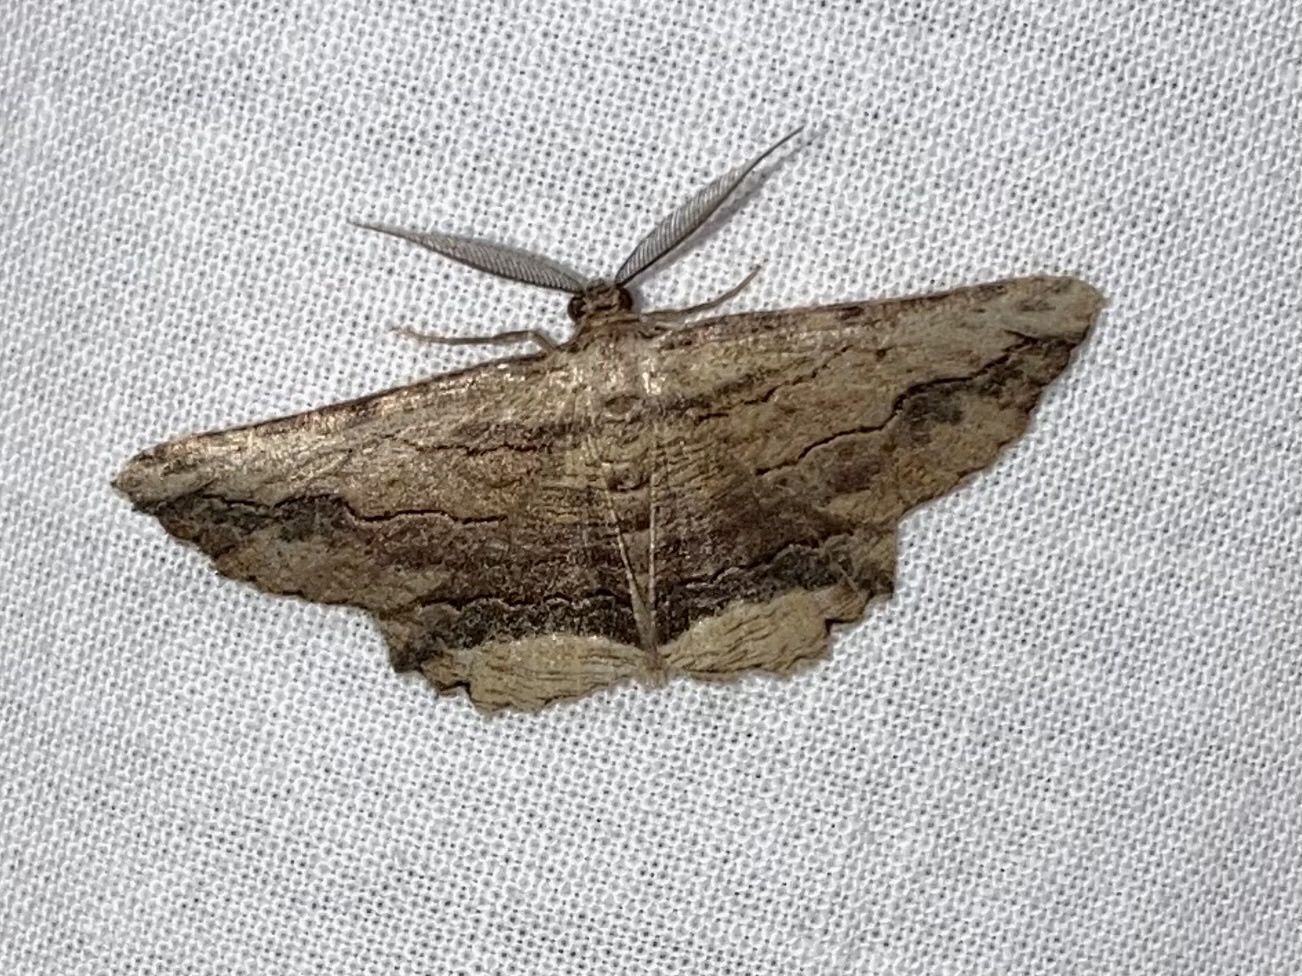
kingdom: Animalia
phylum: Arthropoda
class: Insecta
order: Lepidoptera
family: Geometridae
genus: Menophra
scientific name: Menophra abruptaria
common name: Waved umber
